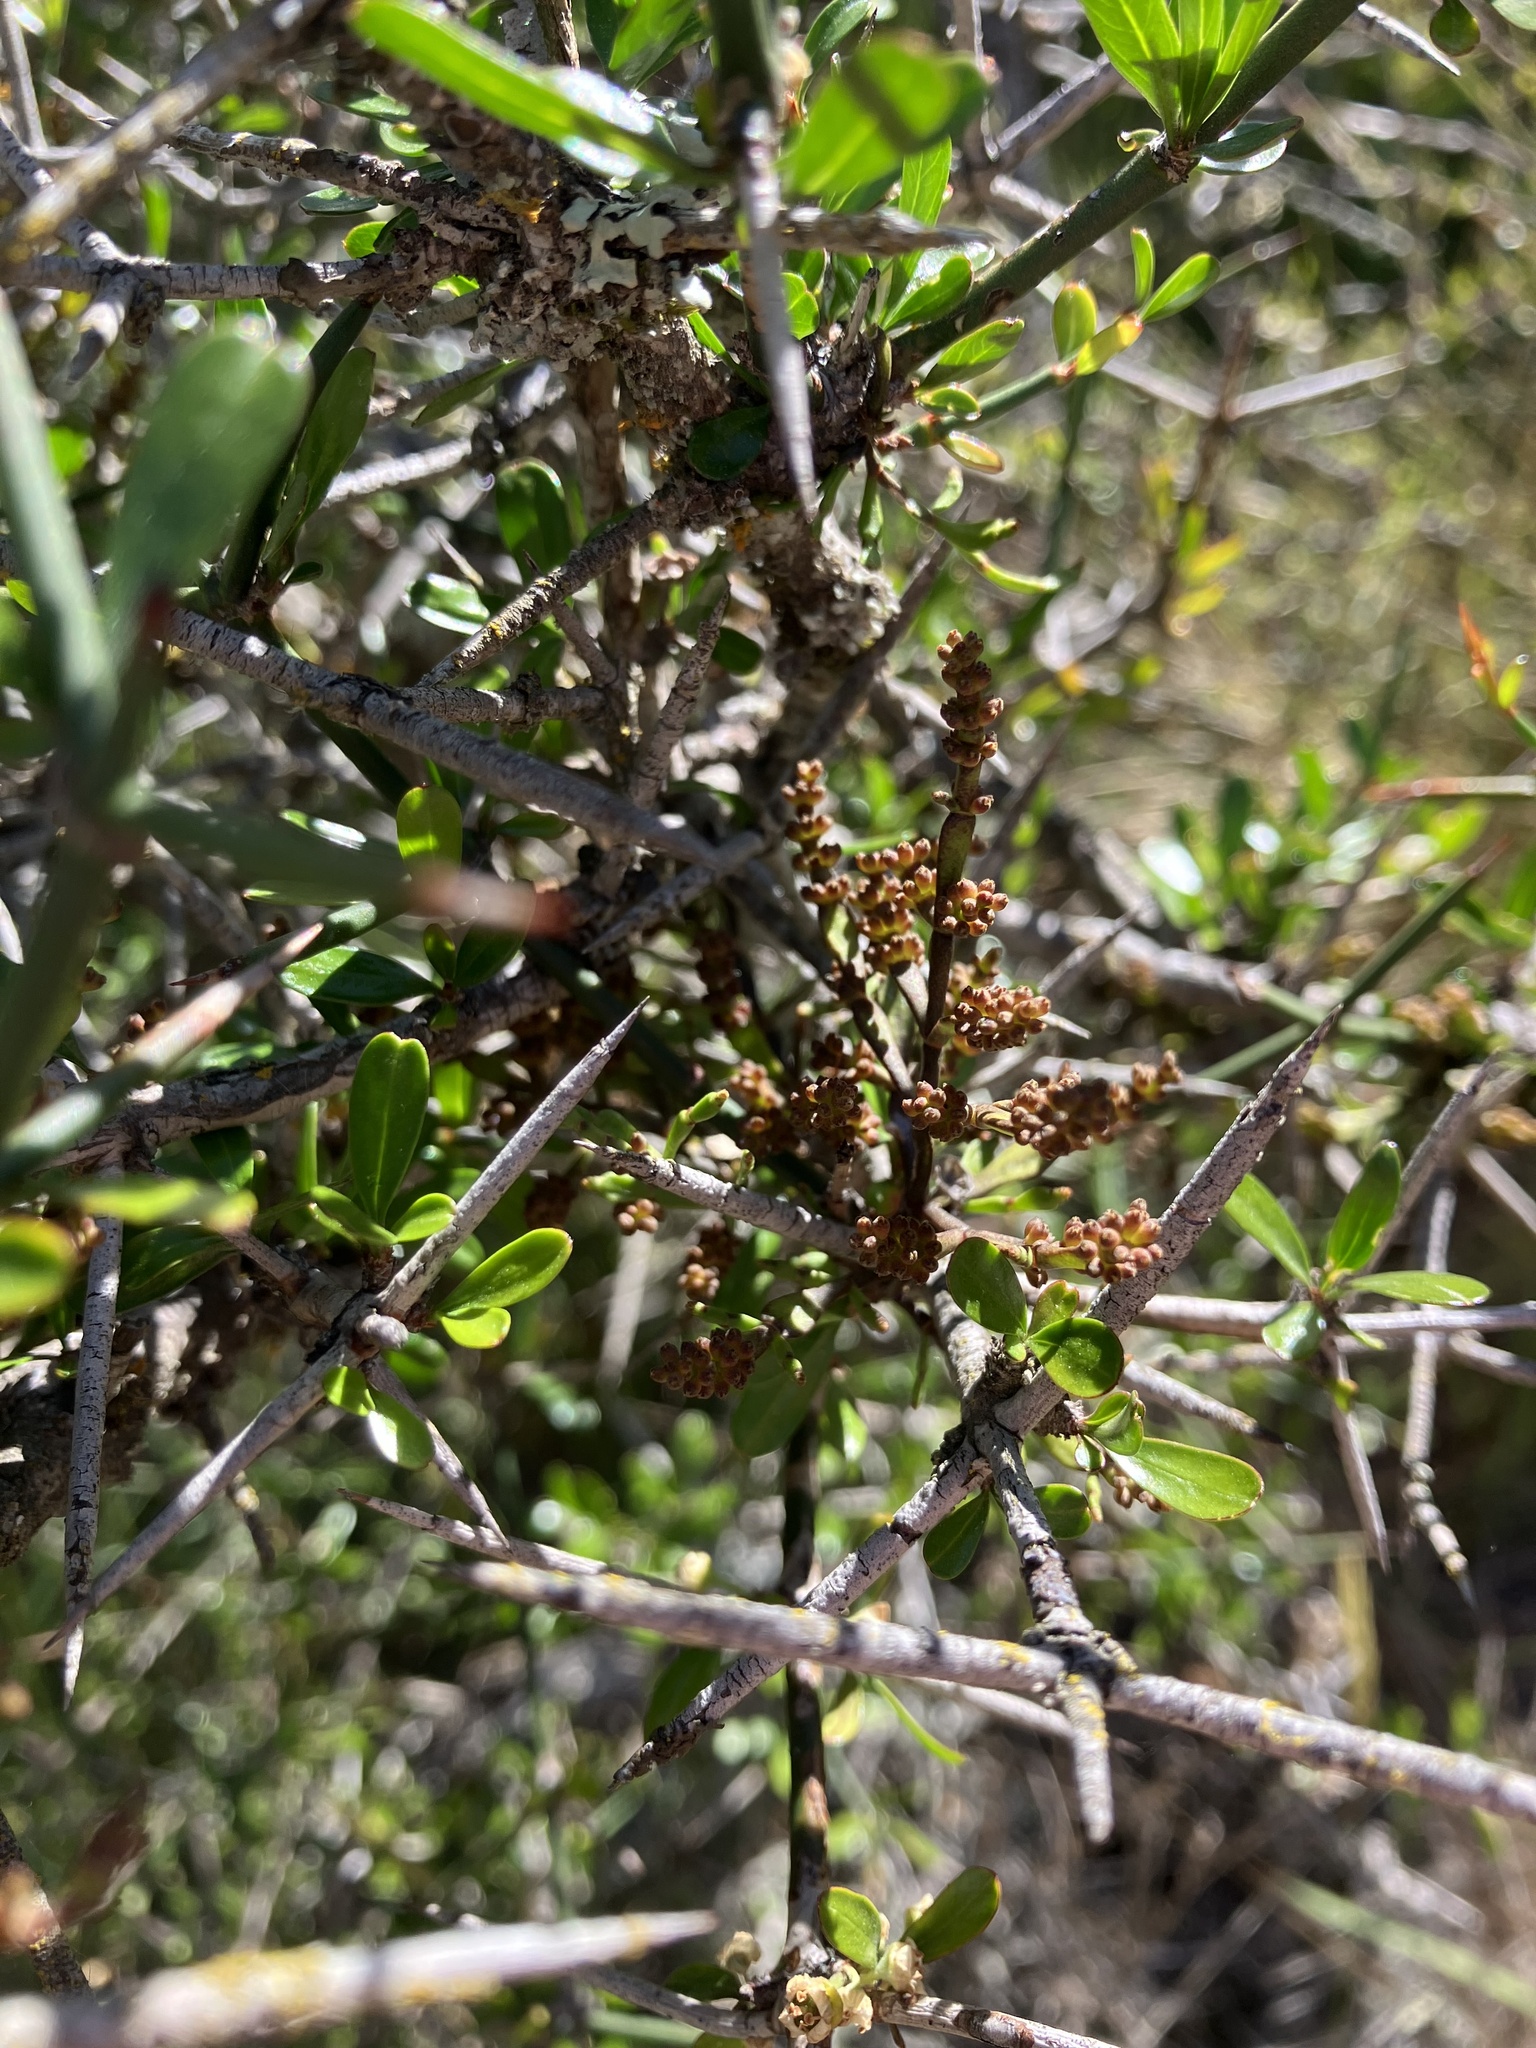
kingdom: Plantae
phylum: Tracheophyta
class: Magnoliopsida
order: Santalales
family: Viscaceae
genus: Korthalsella
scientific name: Korthalsella salicornioides
